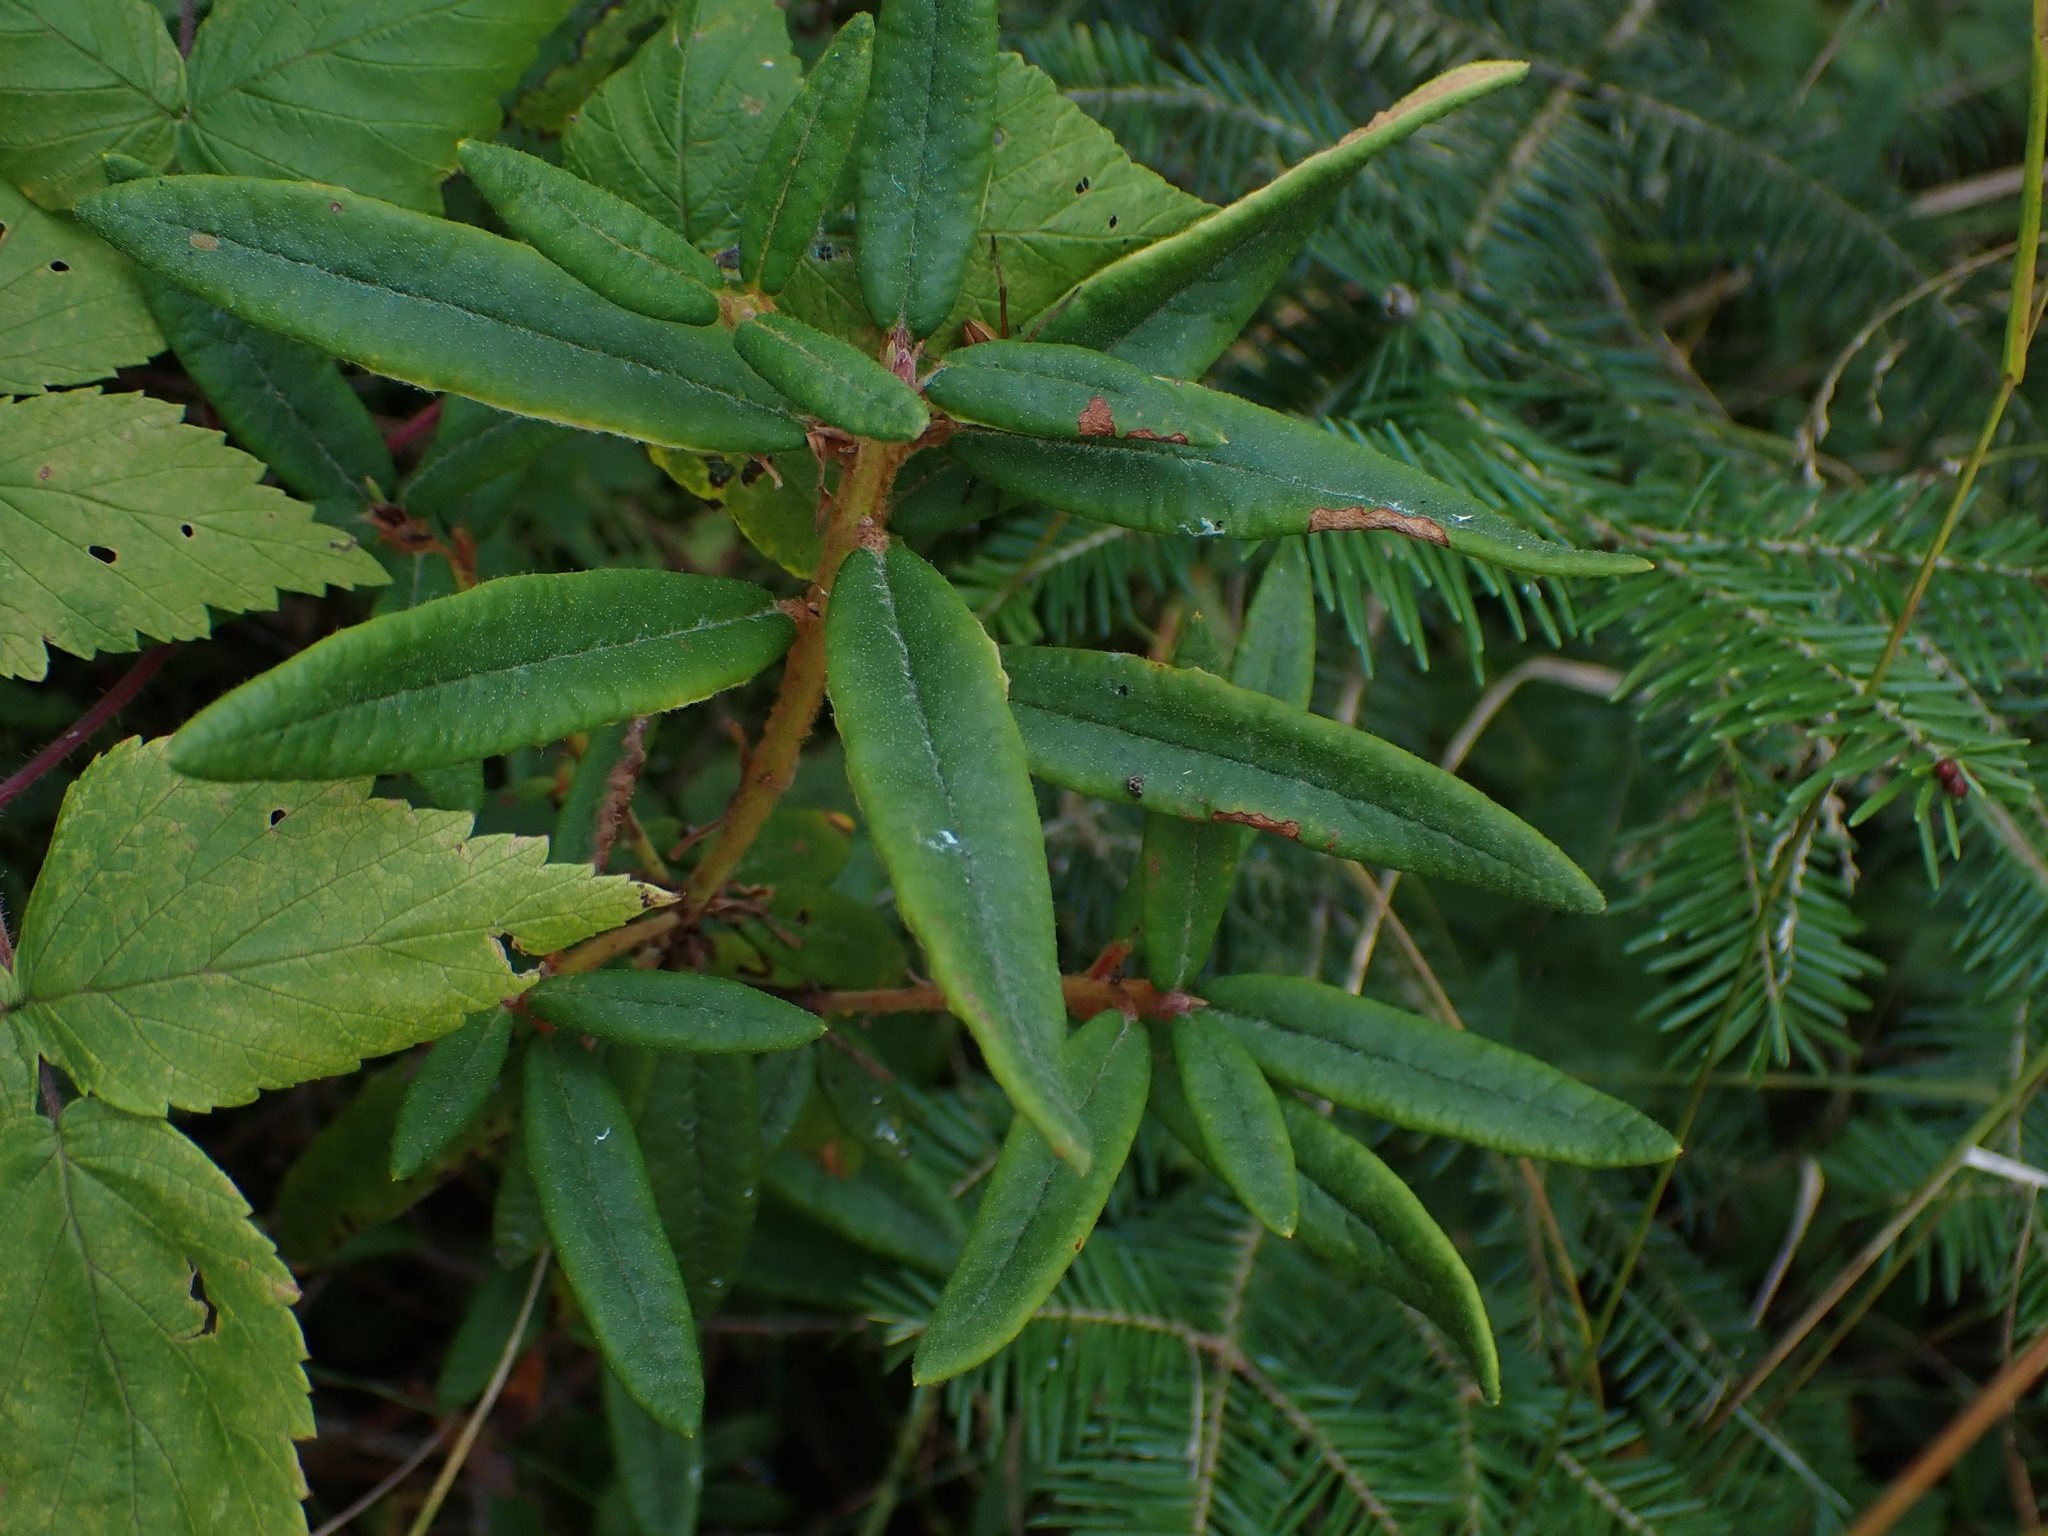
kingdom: Plantae
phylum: Tracheophyta
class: Magnoliopsida
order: Ericales
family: Ericaceae
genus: Rhododendron
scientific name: Rhododendron groenlandicum
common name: Bog labrador tea
